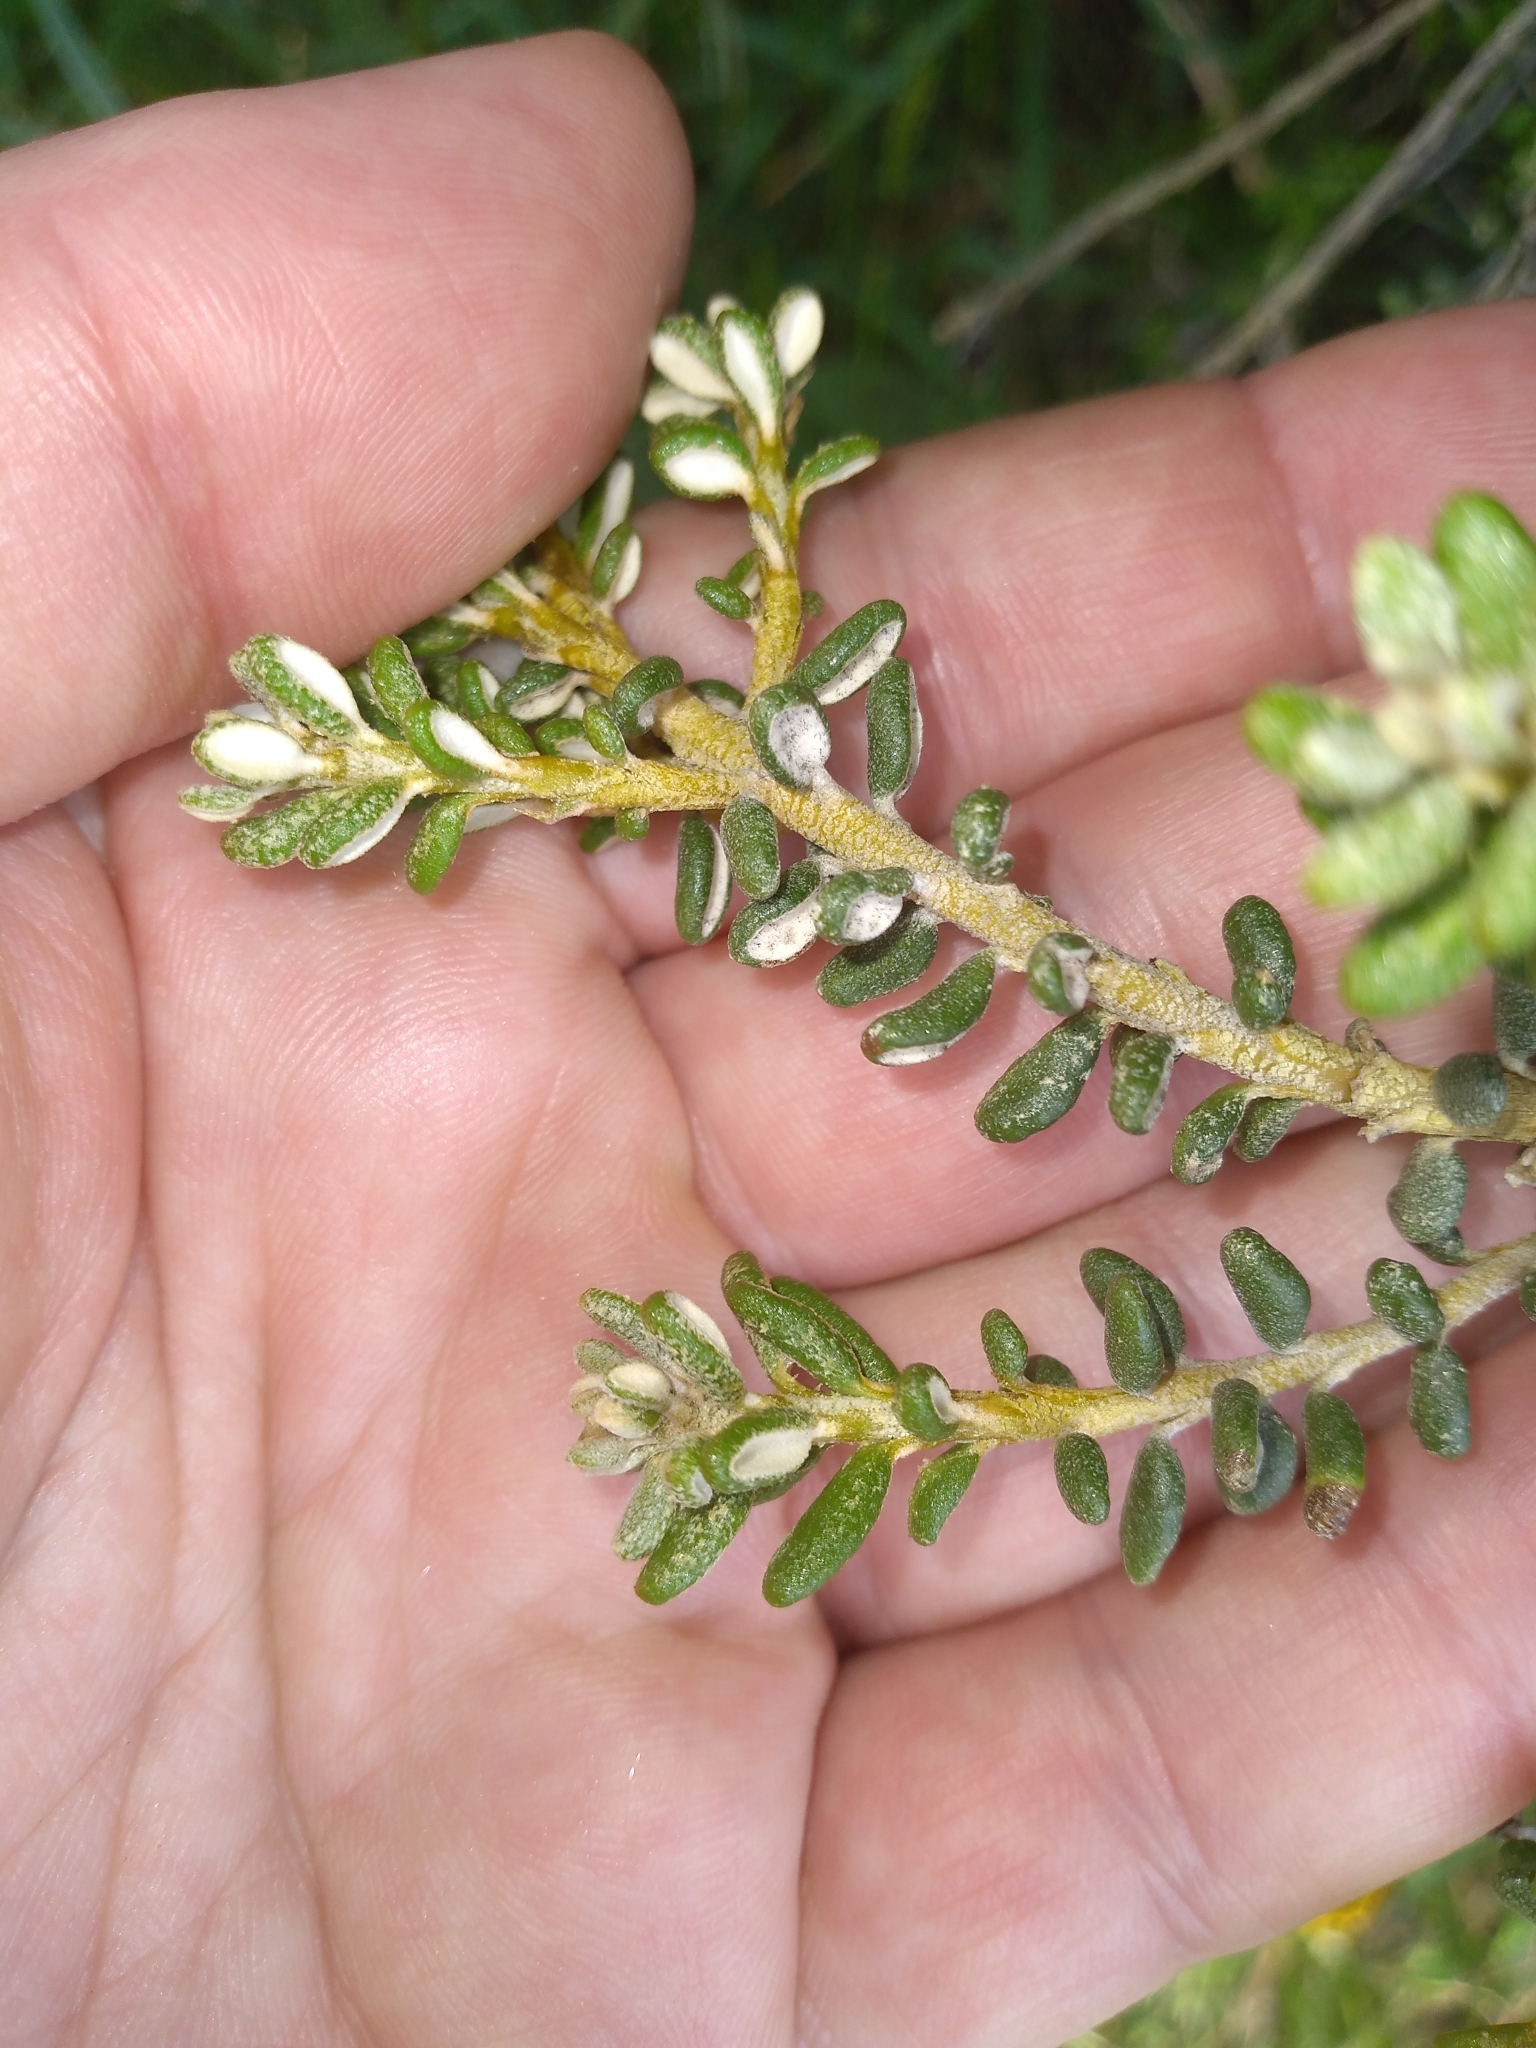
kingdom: Plantae
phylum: Tracheophyta
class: Magnoliopsida
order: Asterales
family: Asteraceae
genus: Olearia
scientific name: Olearia cymbifolia
